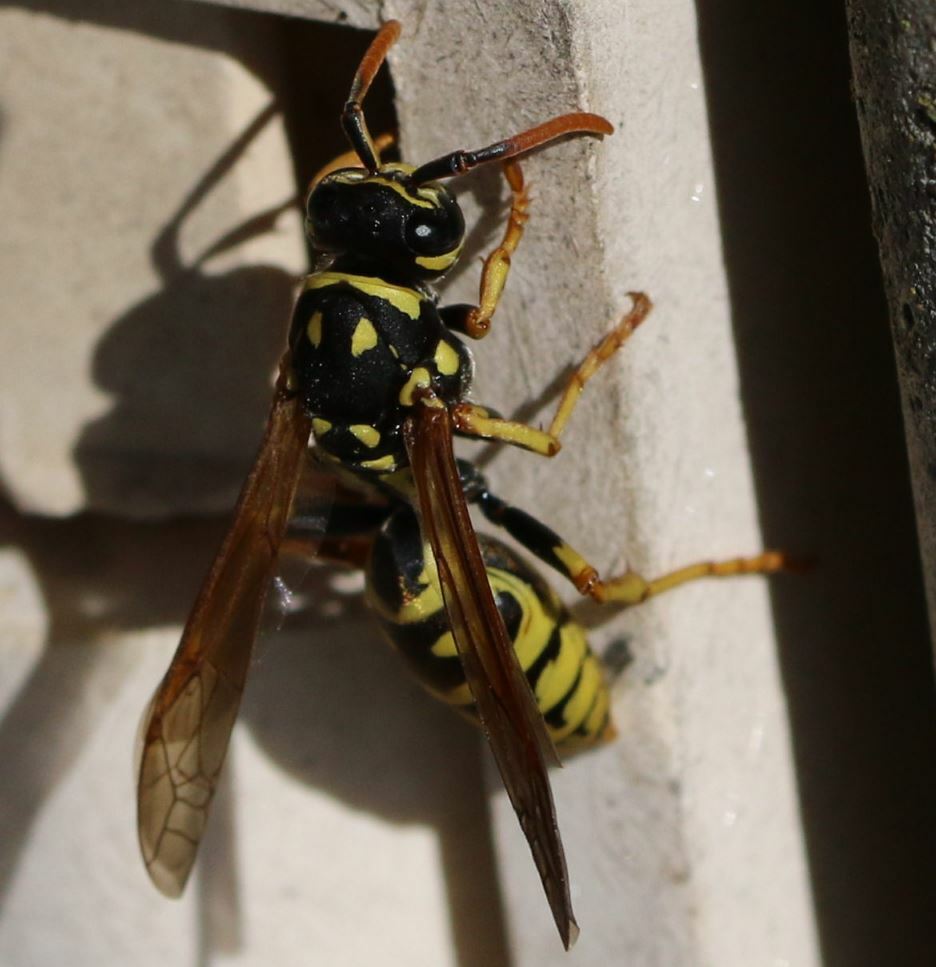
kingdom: Animalia
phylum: Arthropoda
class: Insecta
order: Hymenoptera
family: Eumenidae
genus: Polistes
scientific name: Polistes dominula
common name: Paper wasp
